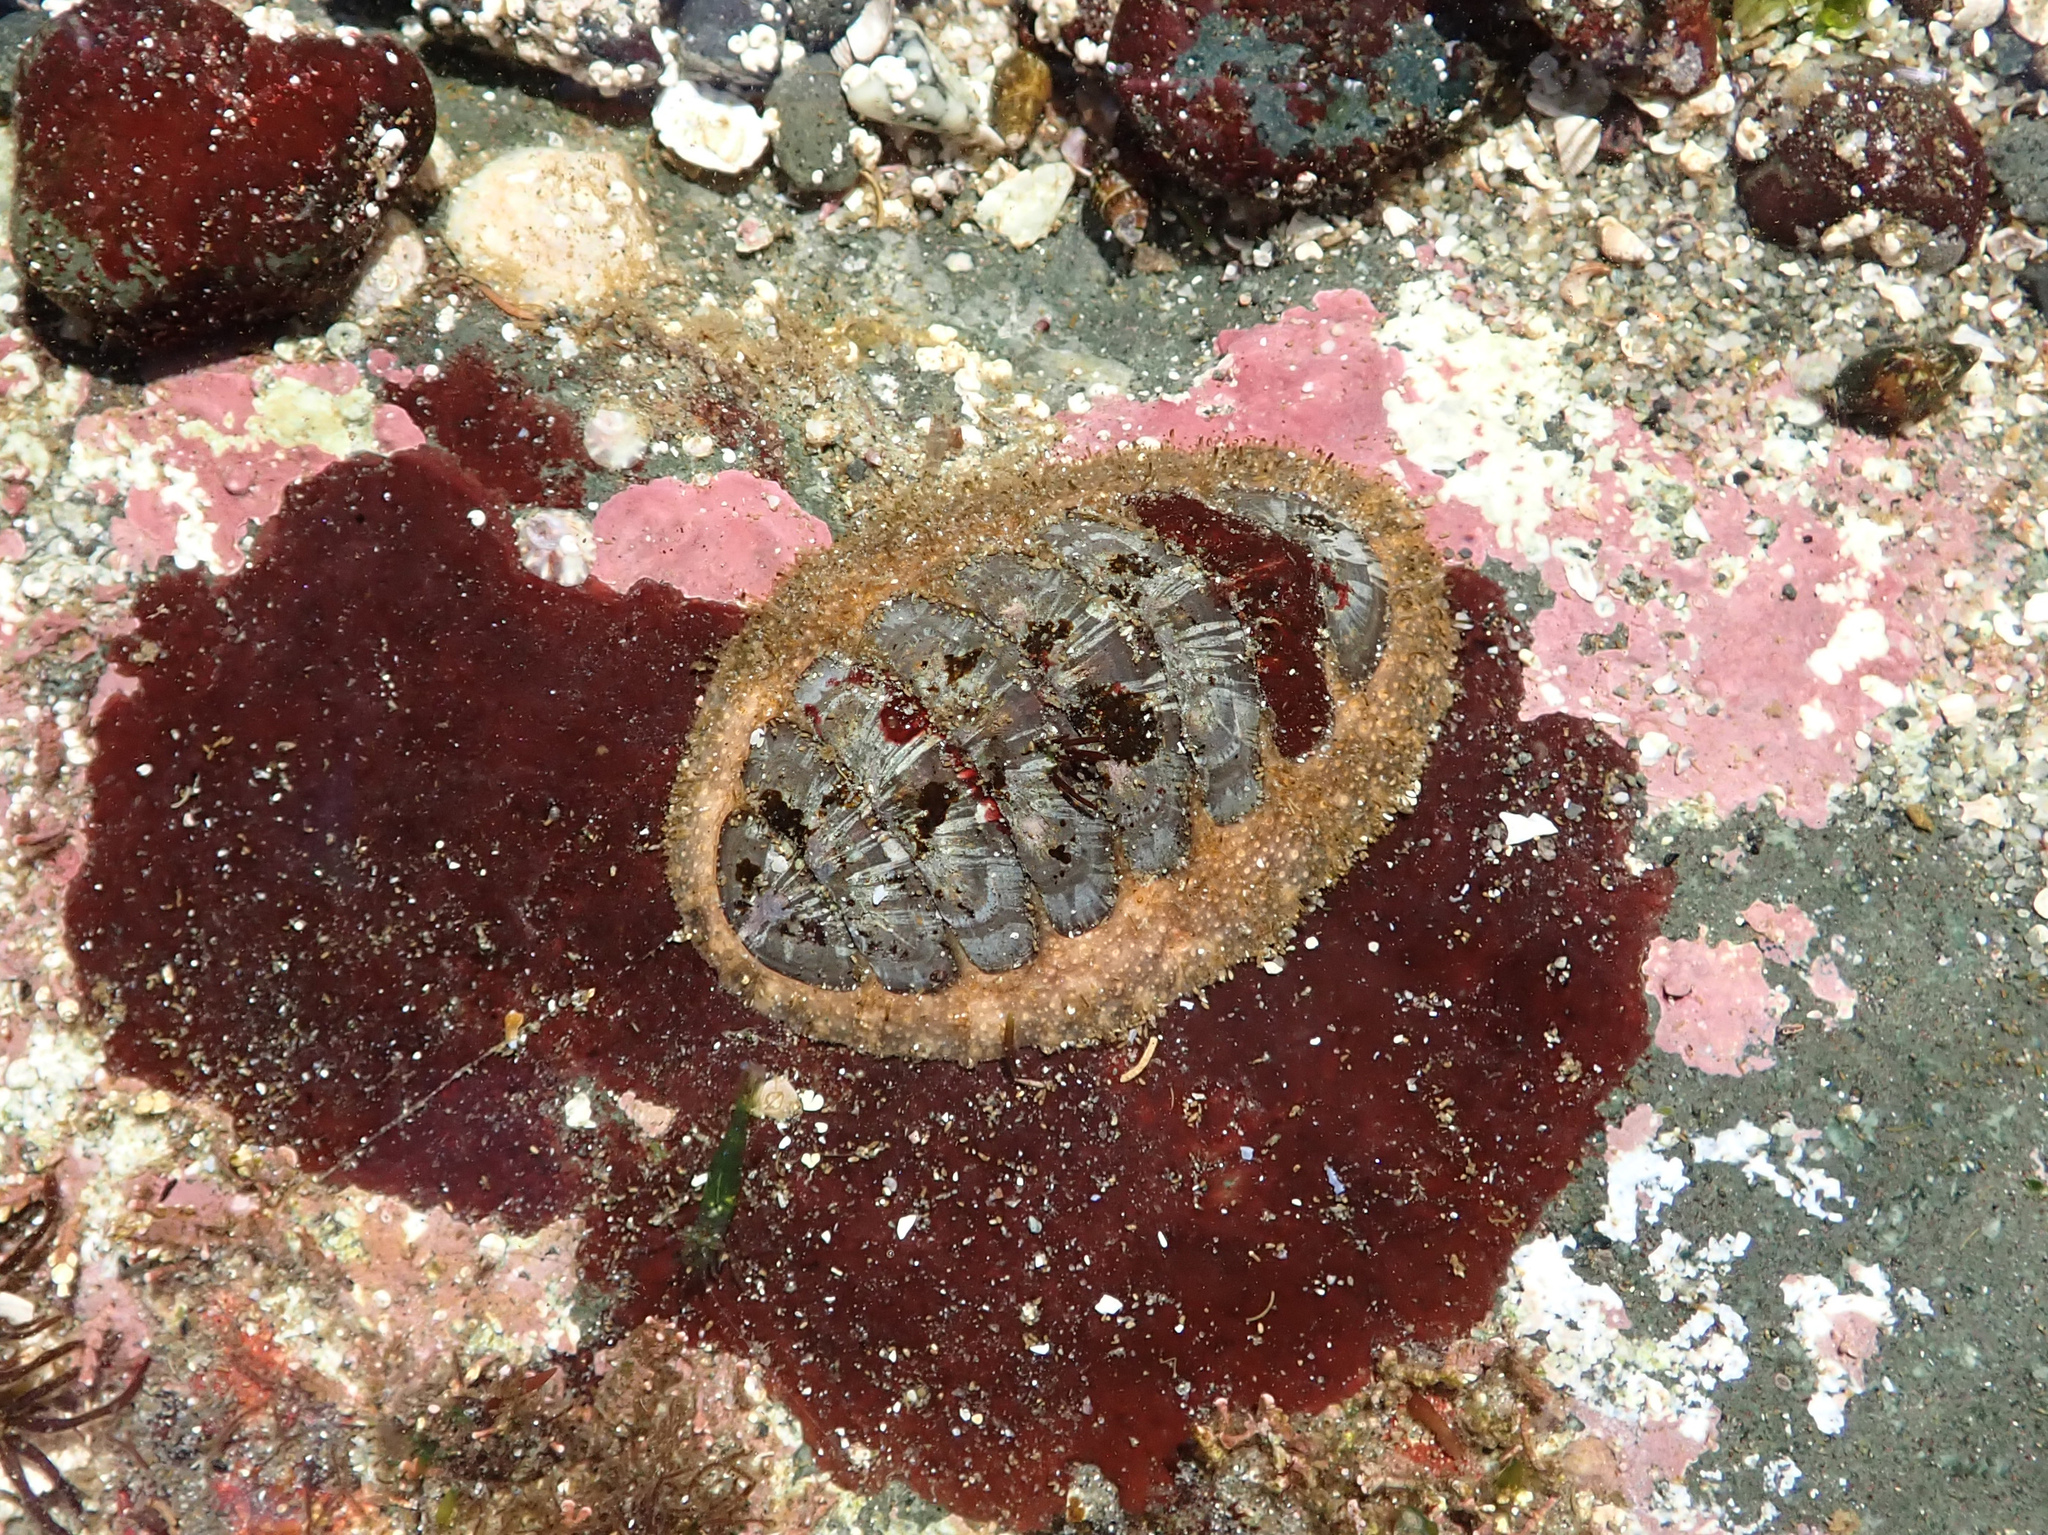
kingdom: Animalia
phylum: Mollusca
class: Polyplacophora
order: Chitonida
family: Mopaliidae
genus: Mopalia
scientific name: Mopalia lignosa
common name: Woody chiton
